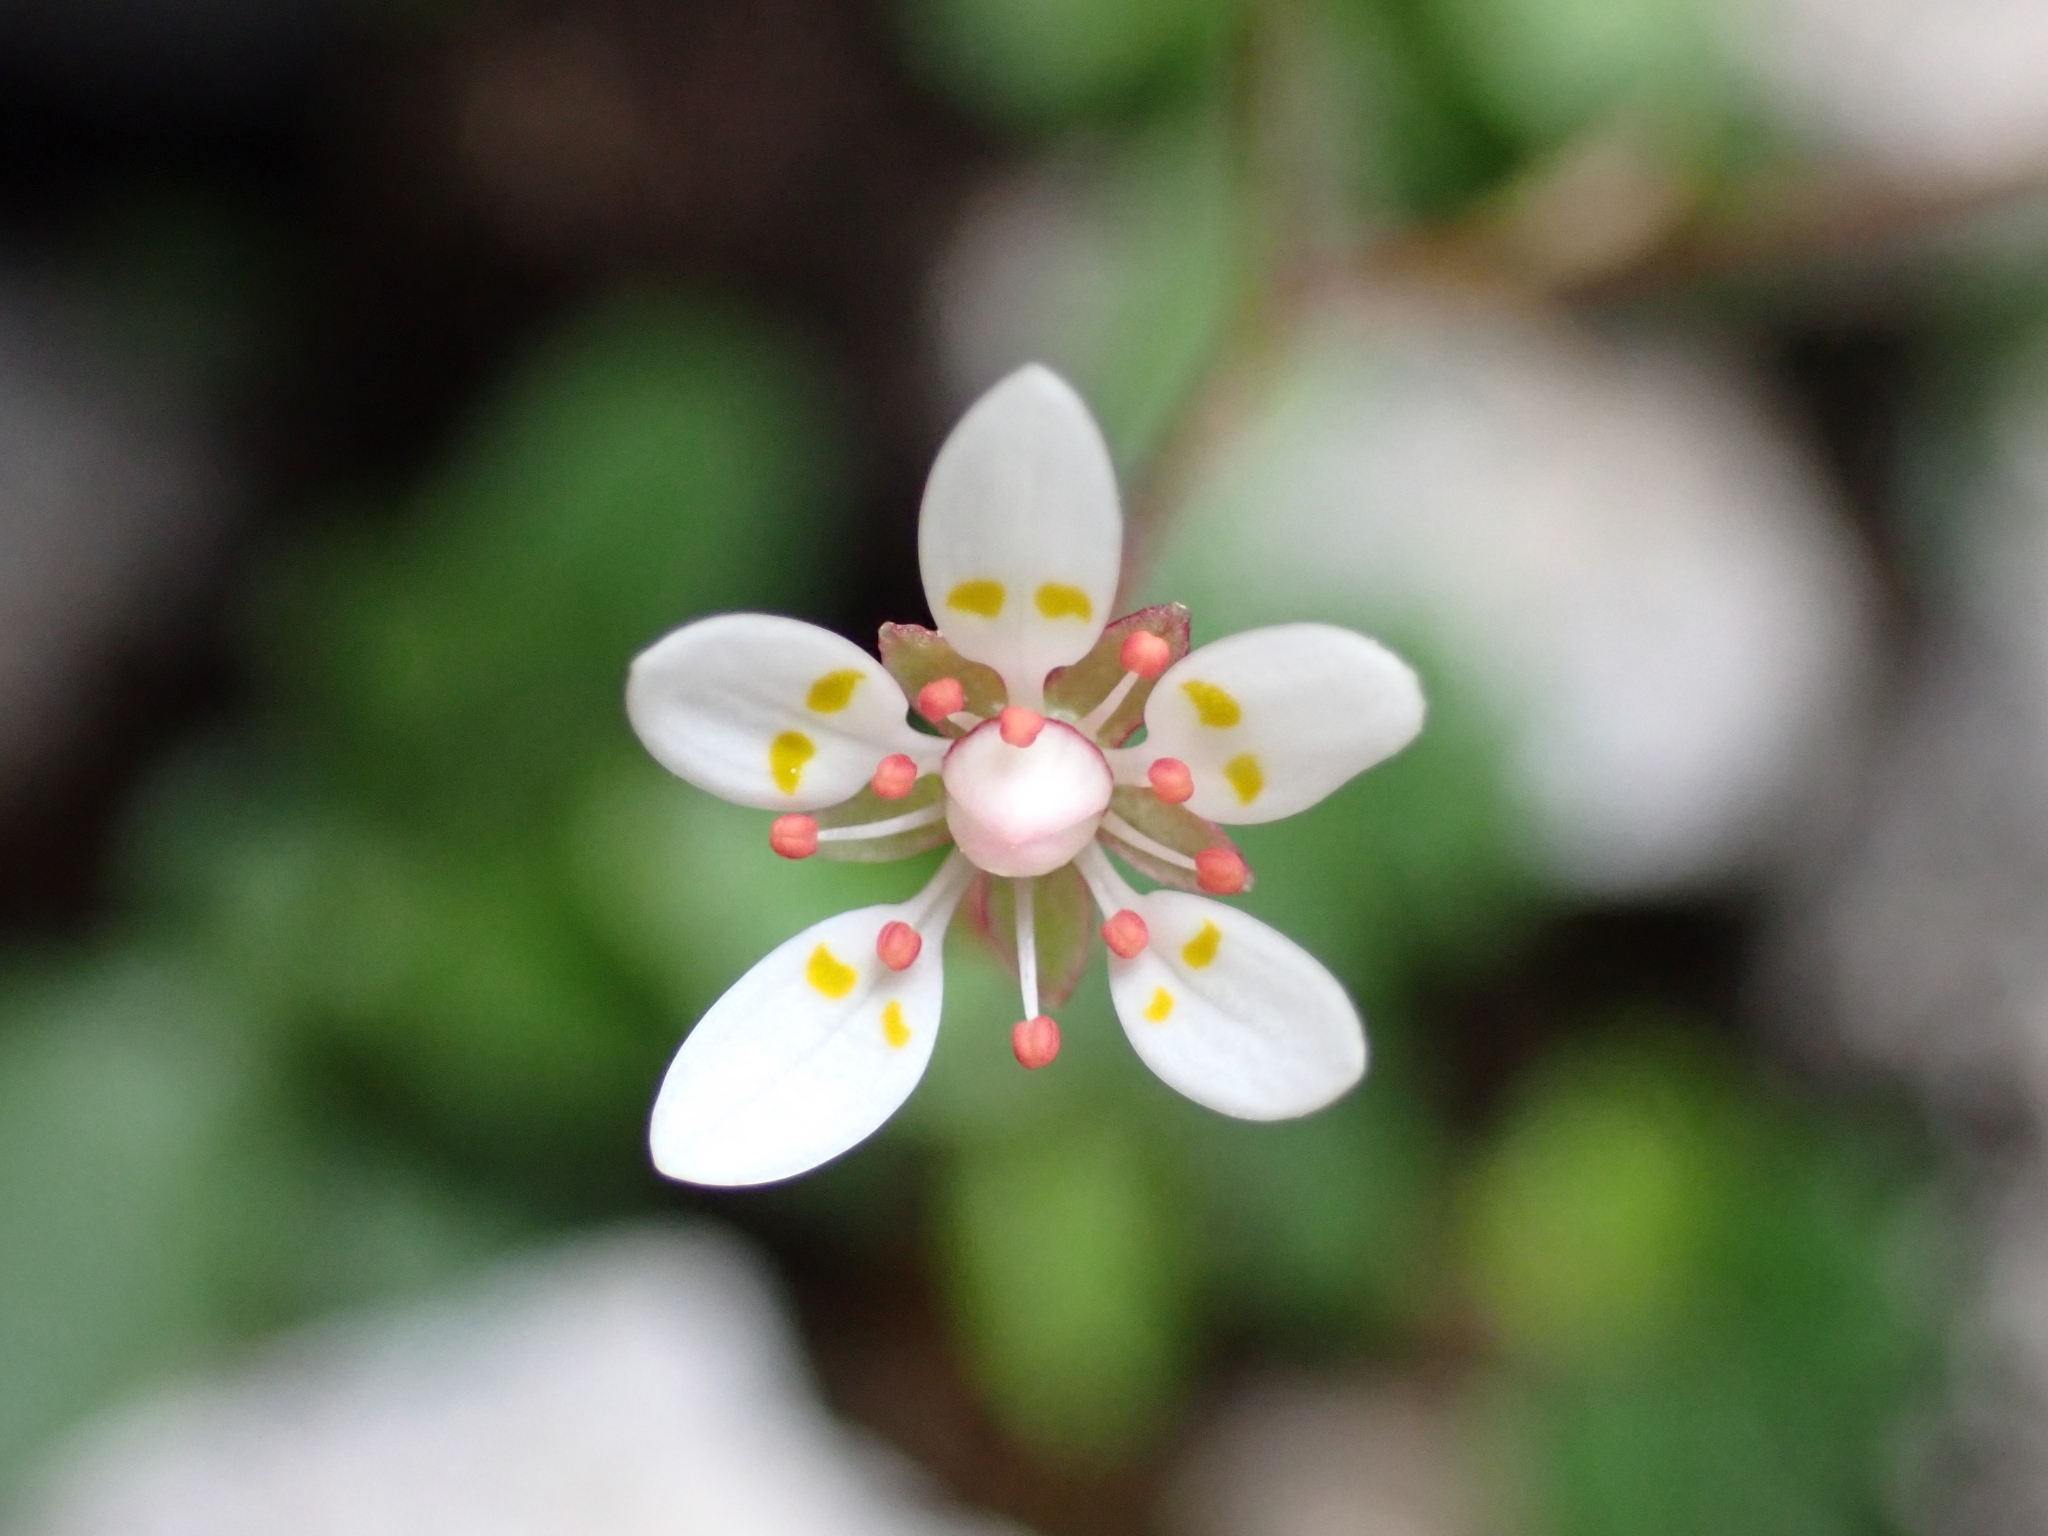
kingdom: Plantae
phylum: Tracheophyta
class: Magnoliopsida
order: Saxifragales
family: Saxifragaceae
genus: Micranthes
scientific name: Micranthes stellaris
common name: Starry saxifrage
